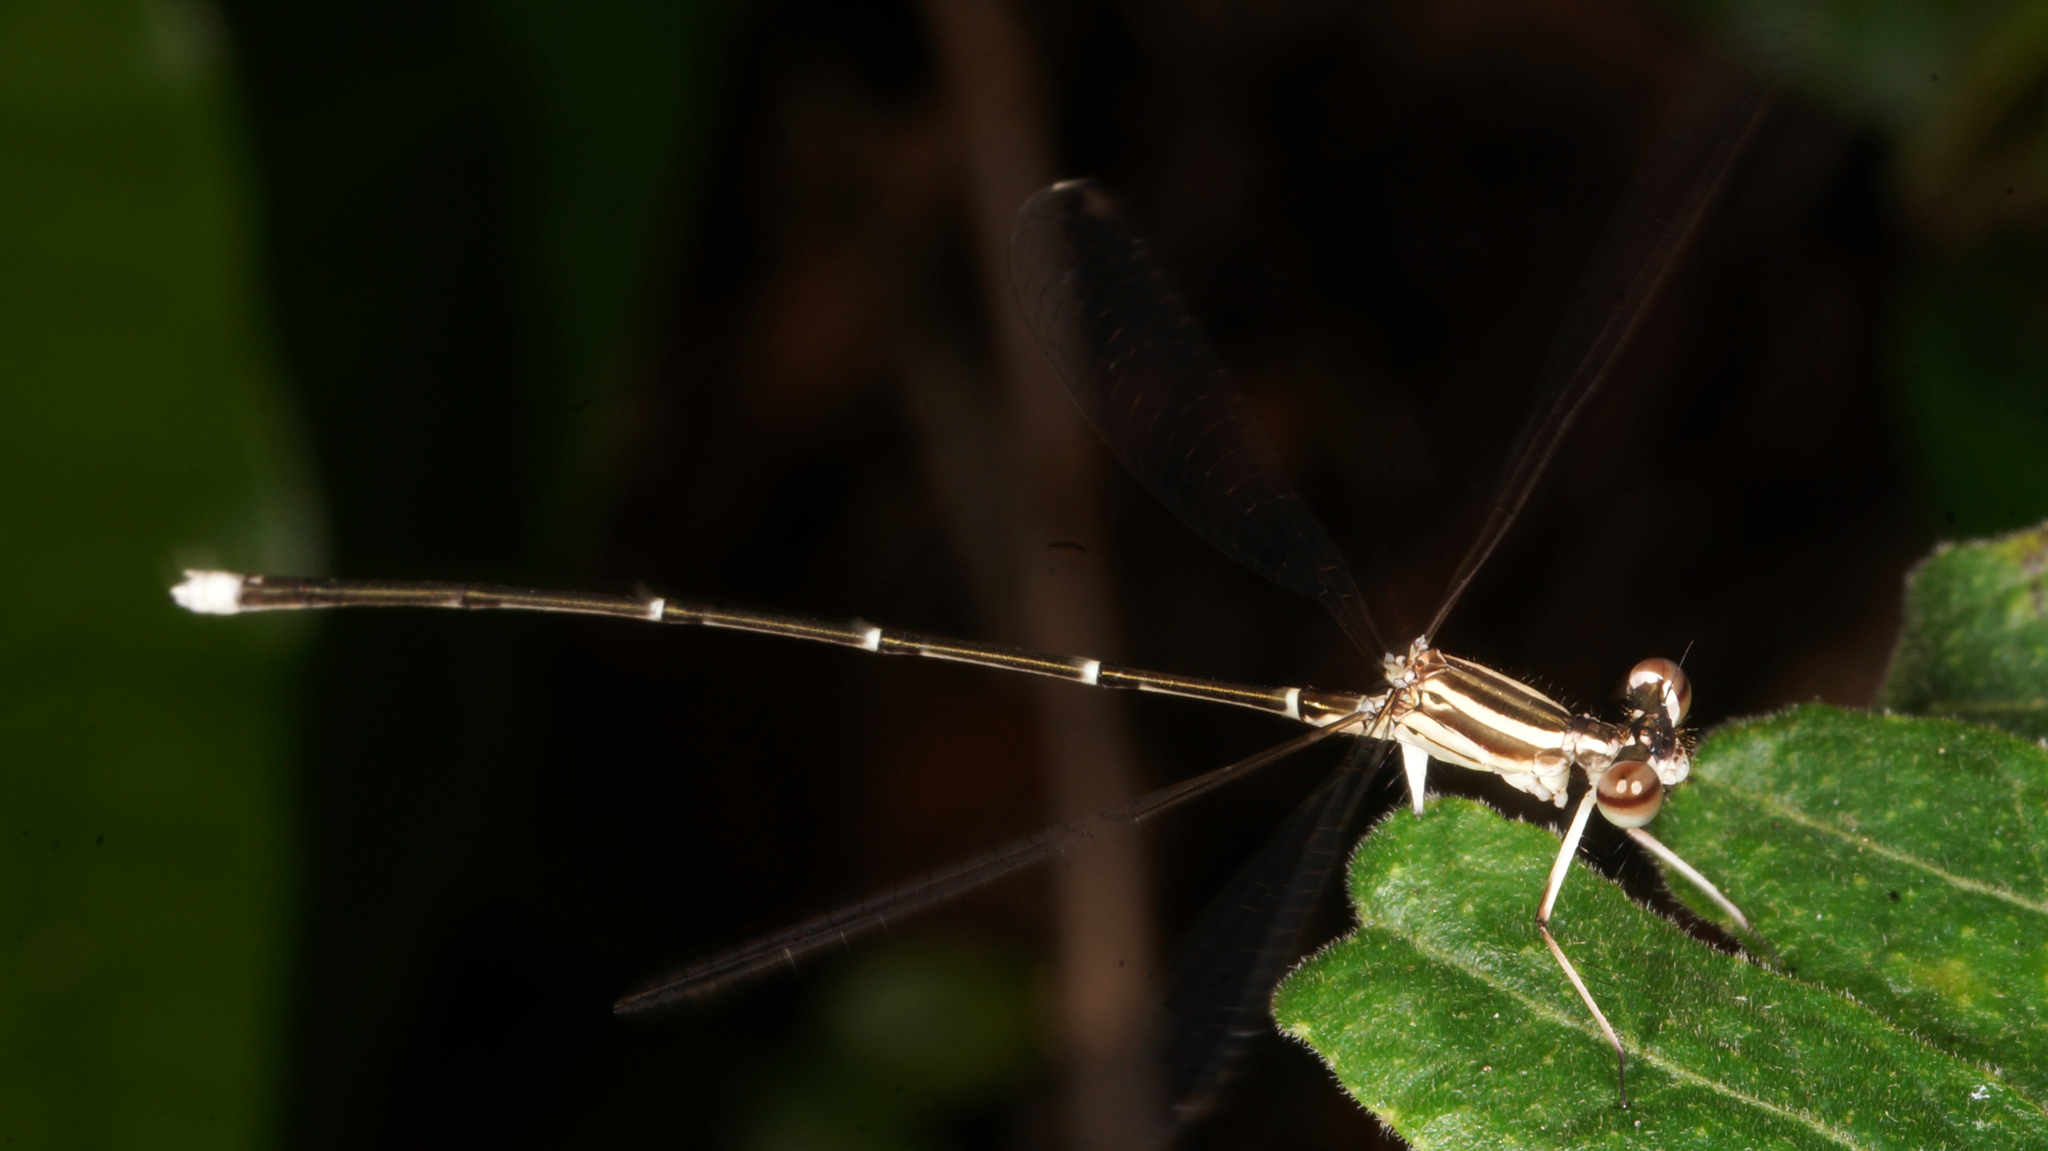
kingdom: Animalia
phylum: Arthropoda
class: Insecta
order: Odonata
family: Platycnemididae
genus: Pseudocopera
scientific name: Pseudocopera ciliata
